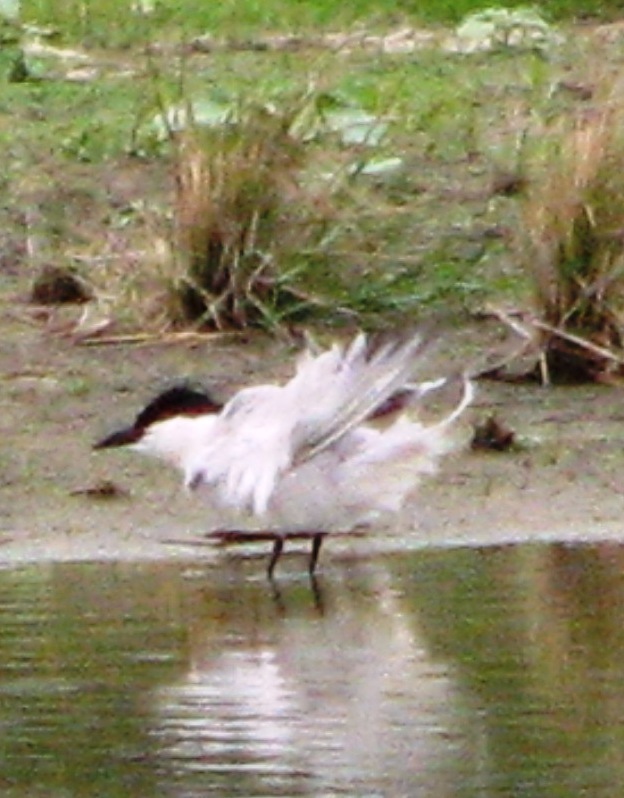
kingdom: Animalia
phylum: Chordata
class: Aves
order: Charadriiformes
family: Laridae
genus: Gelochelidon
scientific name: Gelochelidon nilotica
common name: Gull-billed tern
